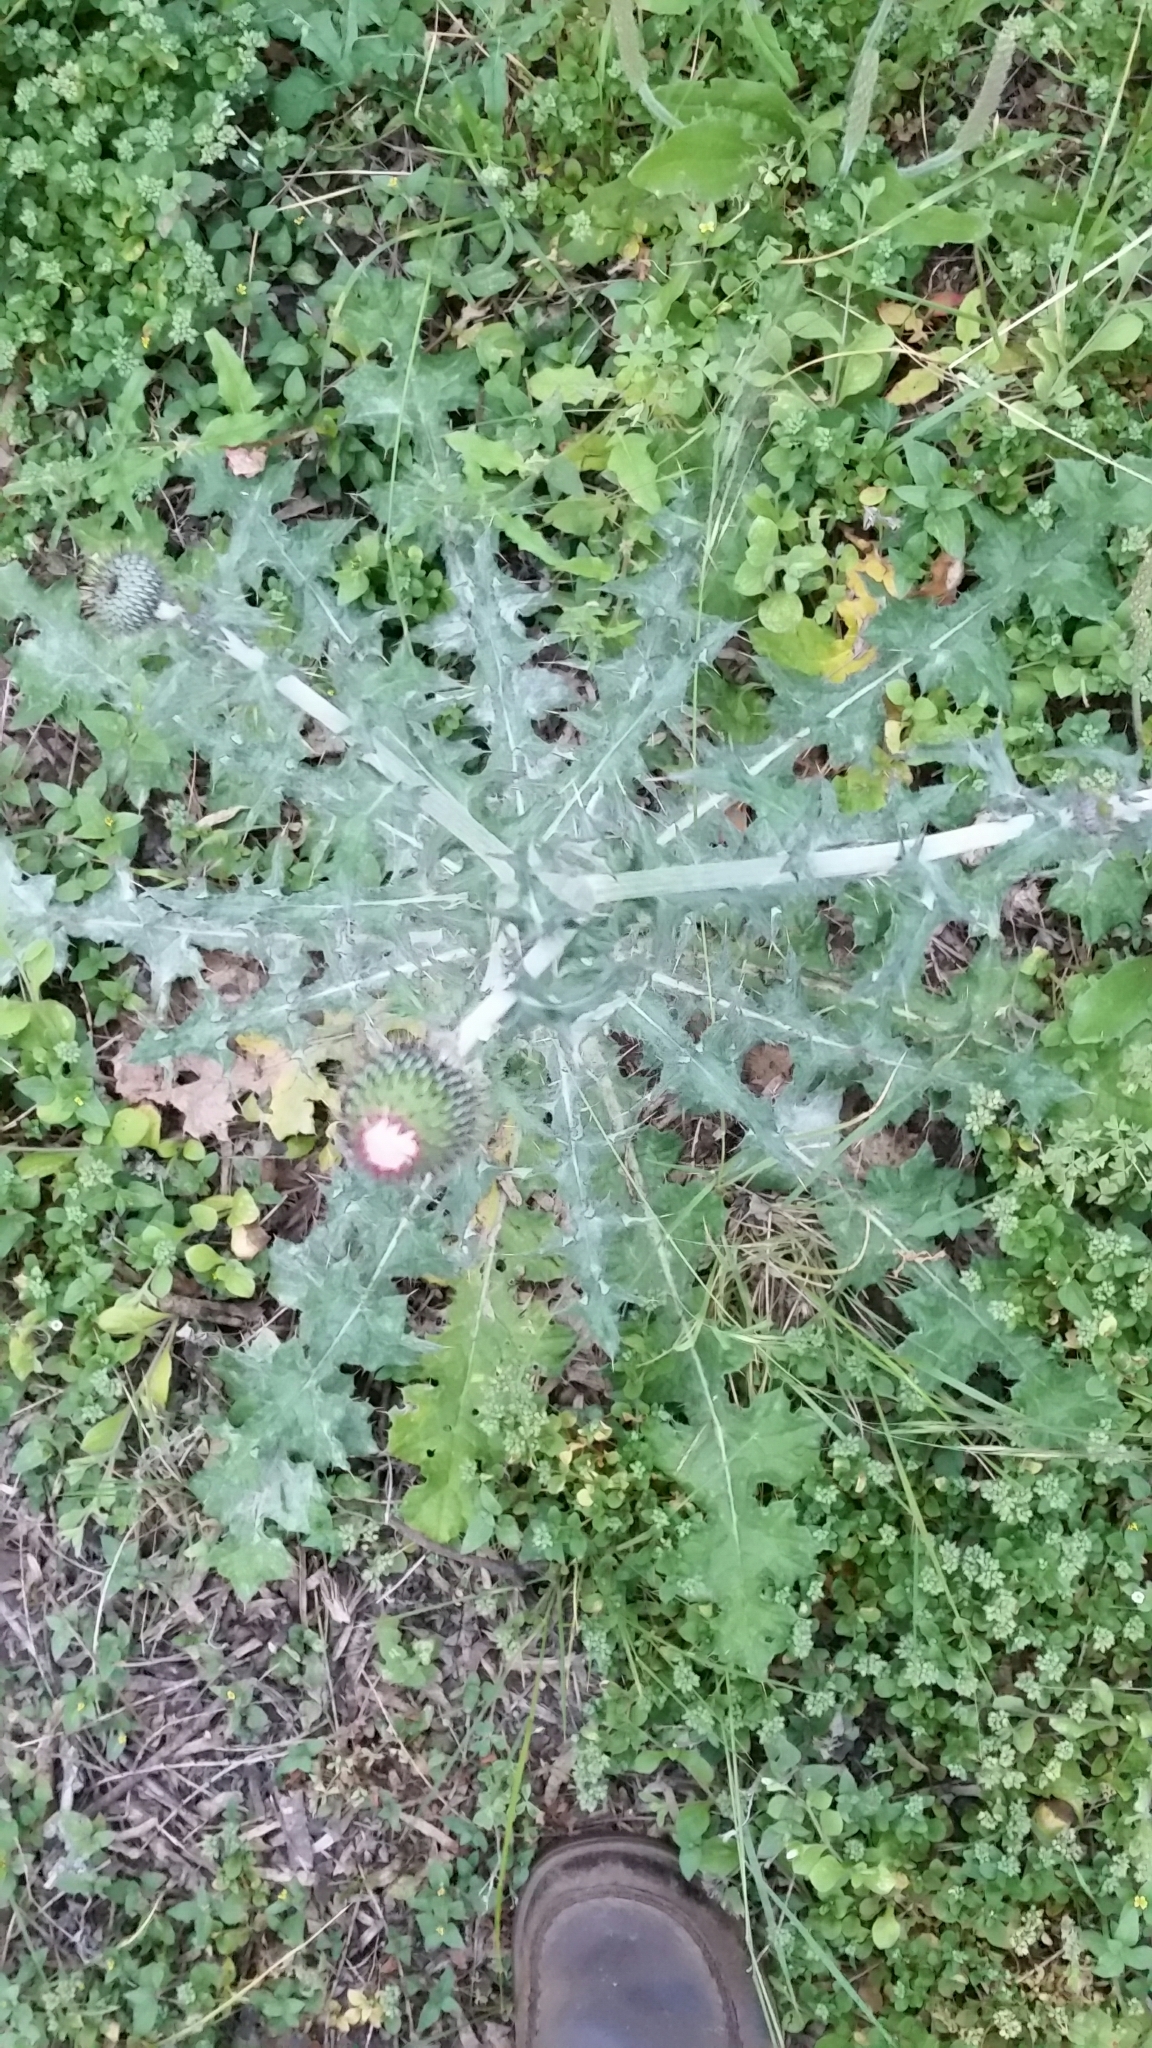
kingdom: Plantae
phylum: Tracheophyta
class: Magnoliopsida
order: Asterales
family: Asteraceae
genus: Cirsium
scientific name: Cirsium texanum
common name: Texas purple thistle
